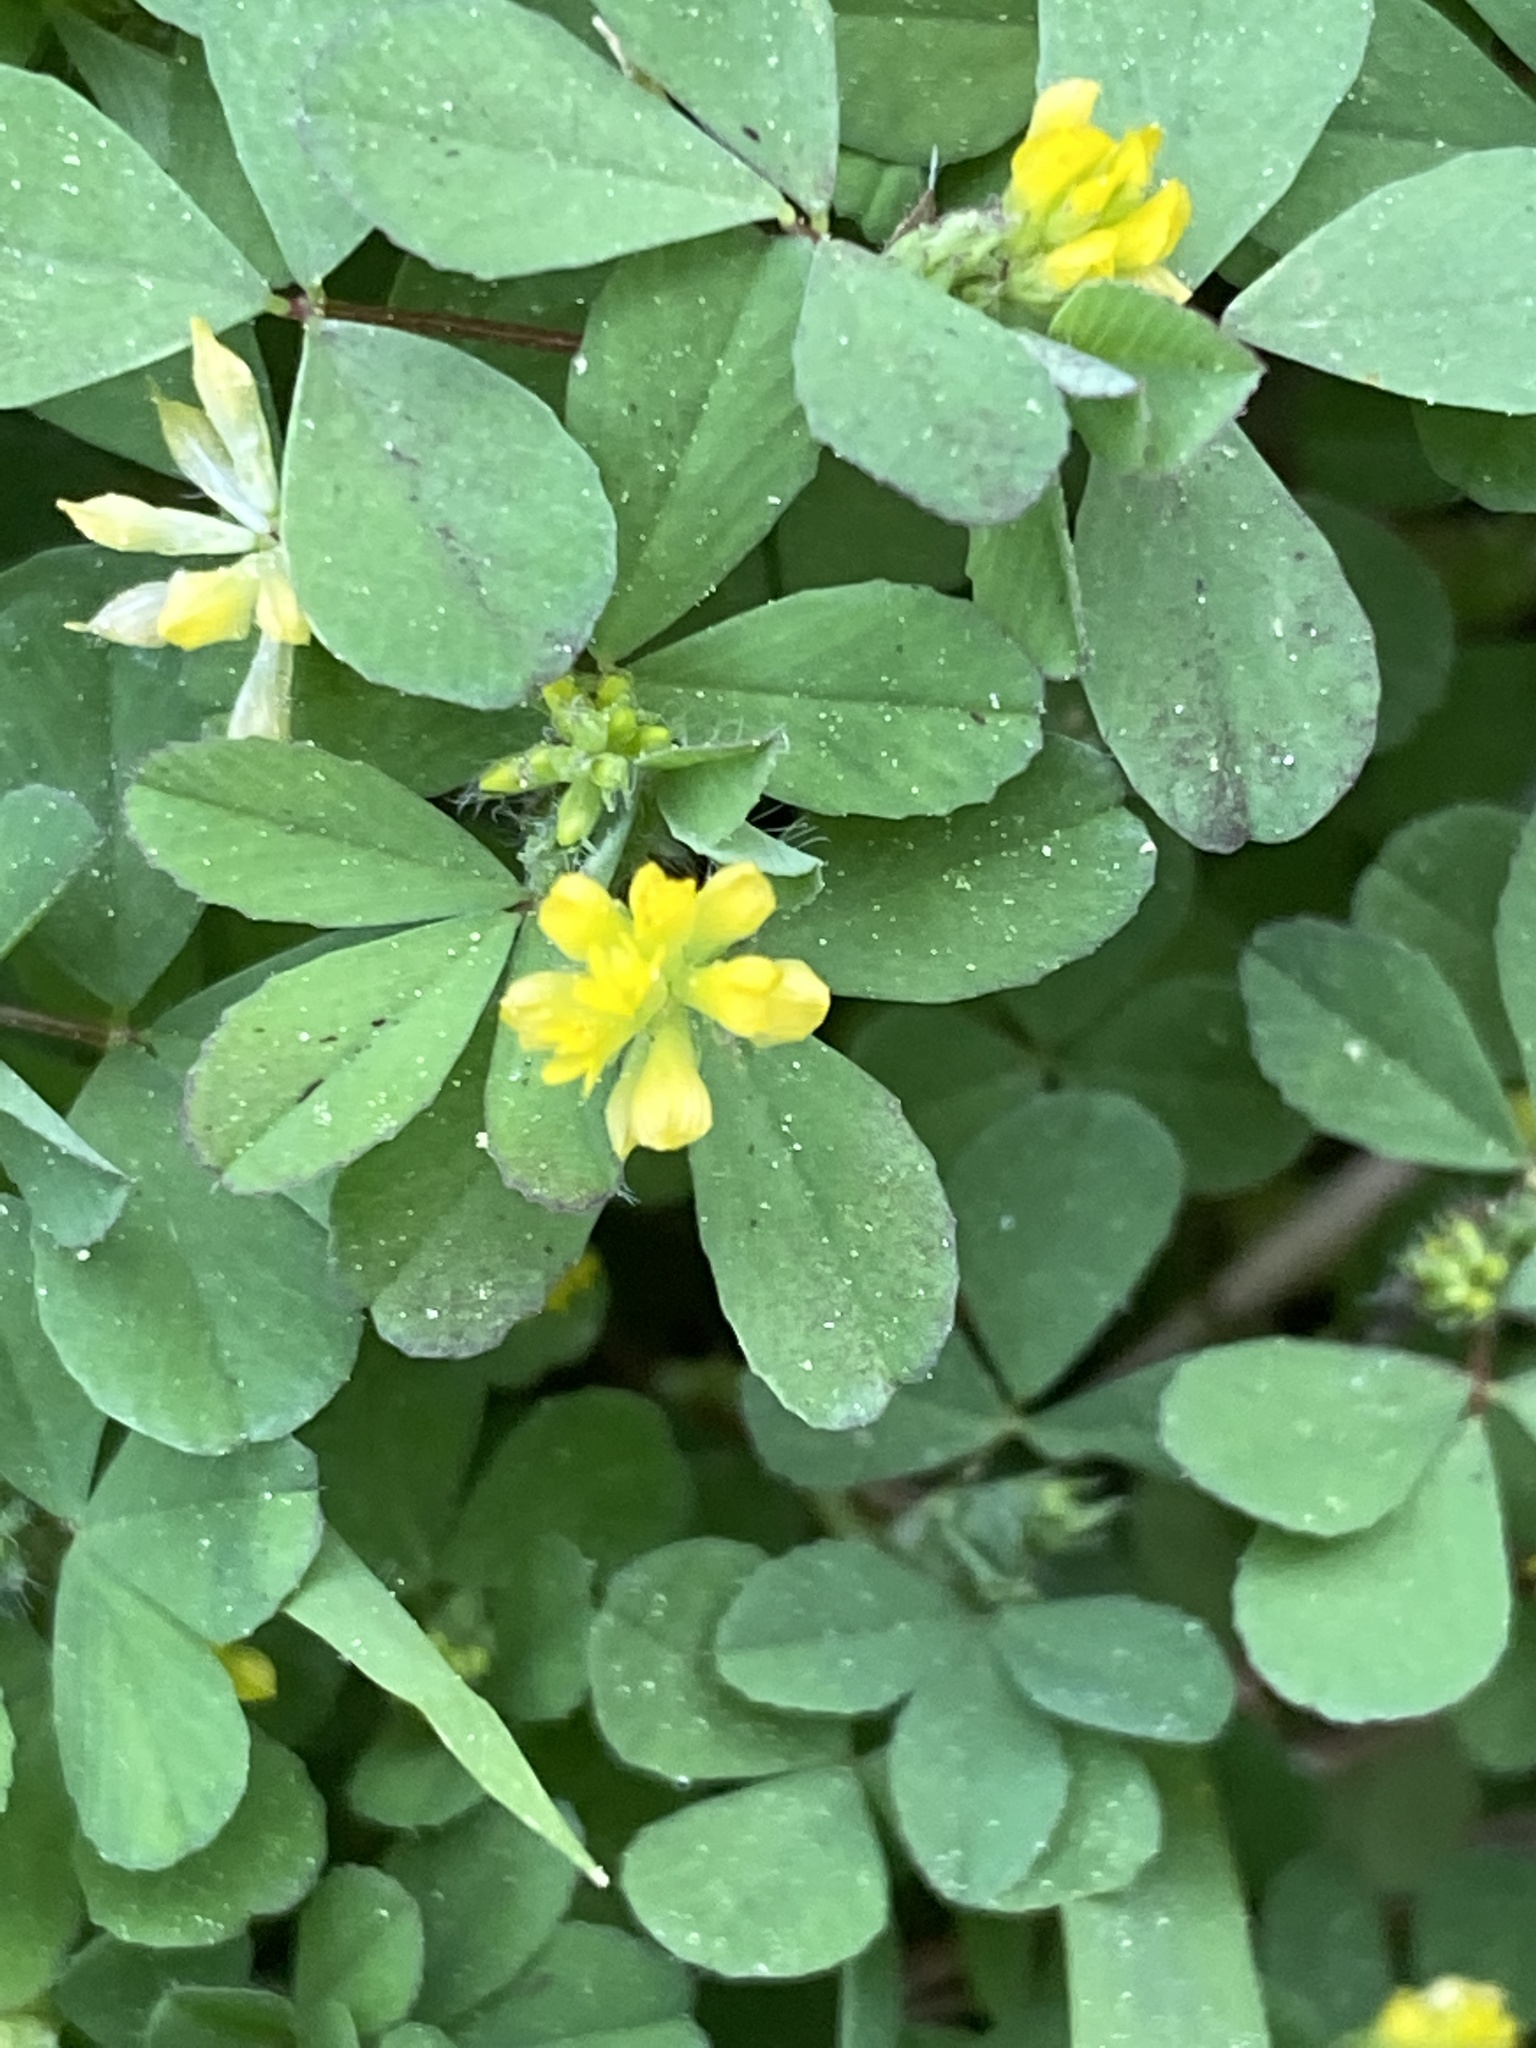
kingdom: Plantae
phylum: Tracheophyta
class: Magnoliopsida
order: Fabales
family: Fabaceae
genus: Trifolium
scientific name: Trifolium dubium
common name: Suckling clover
